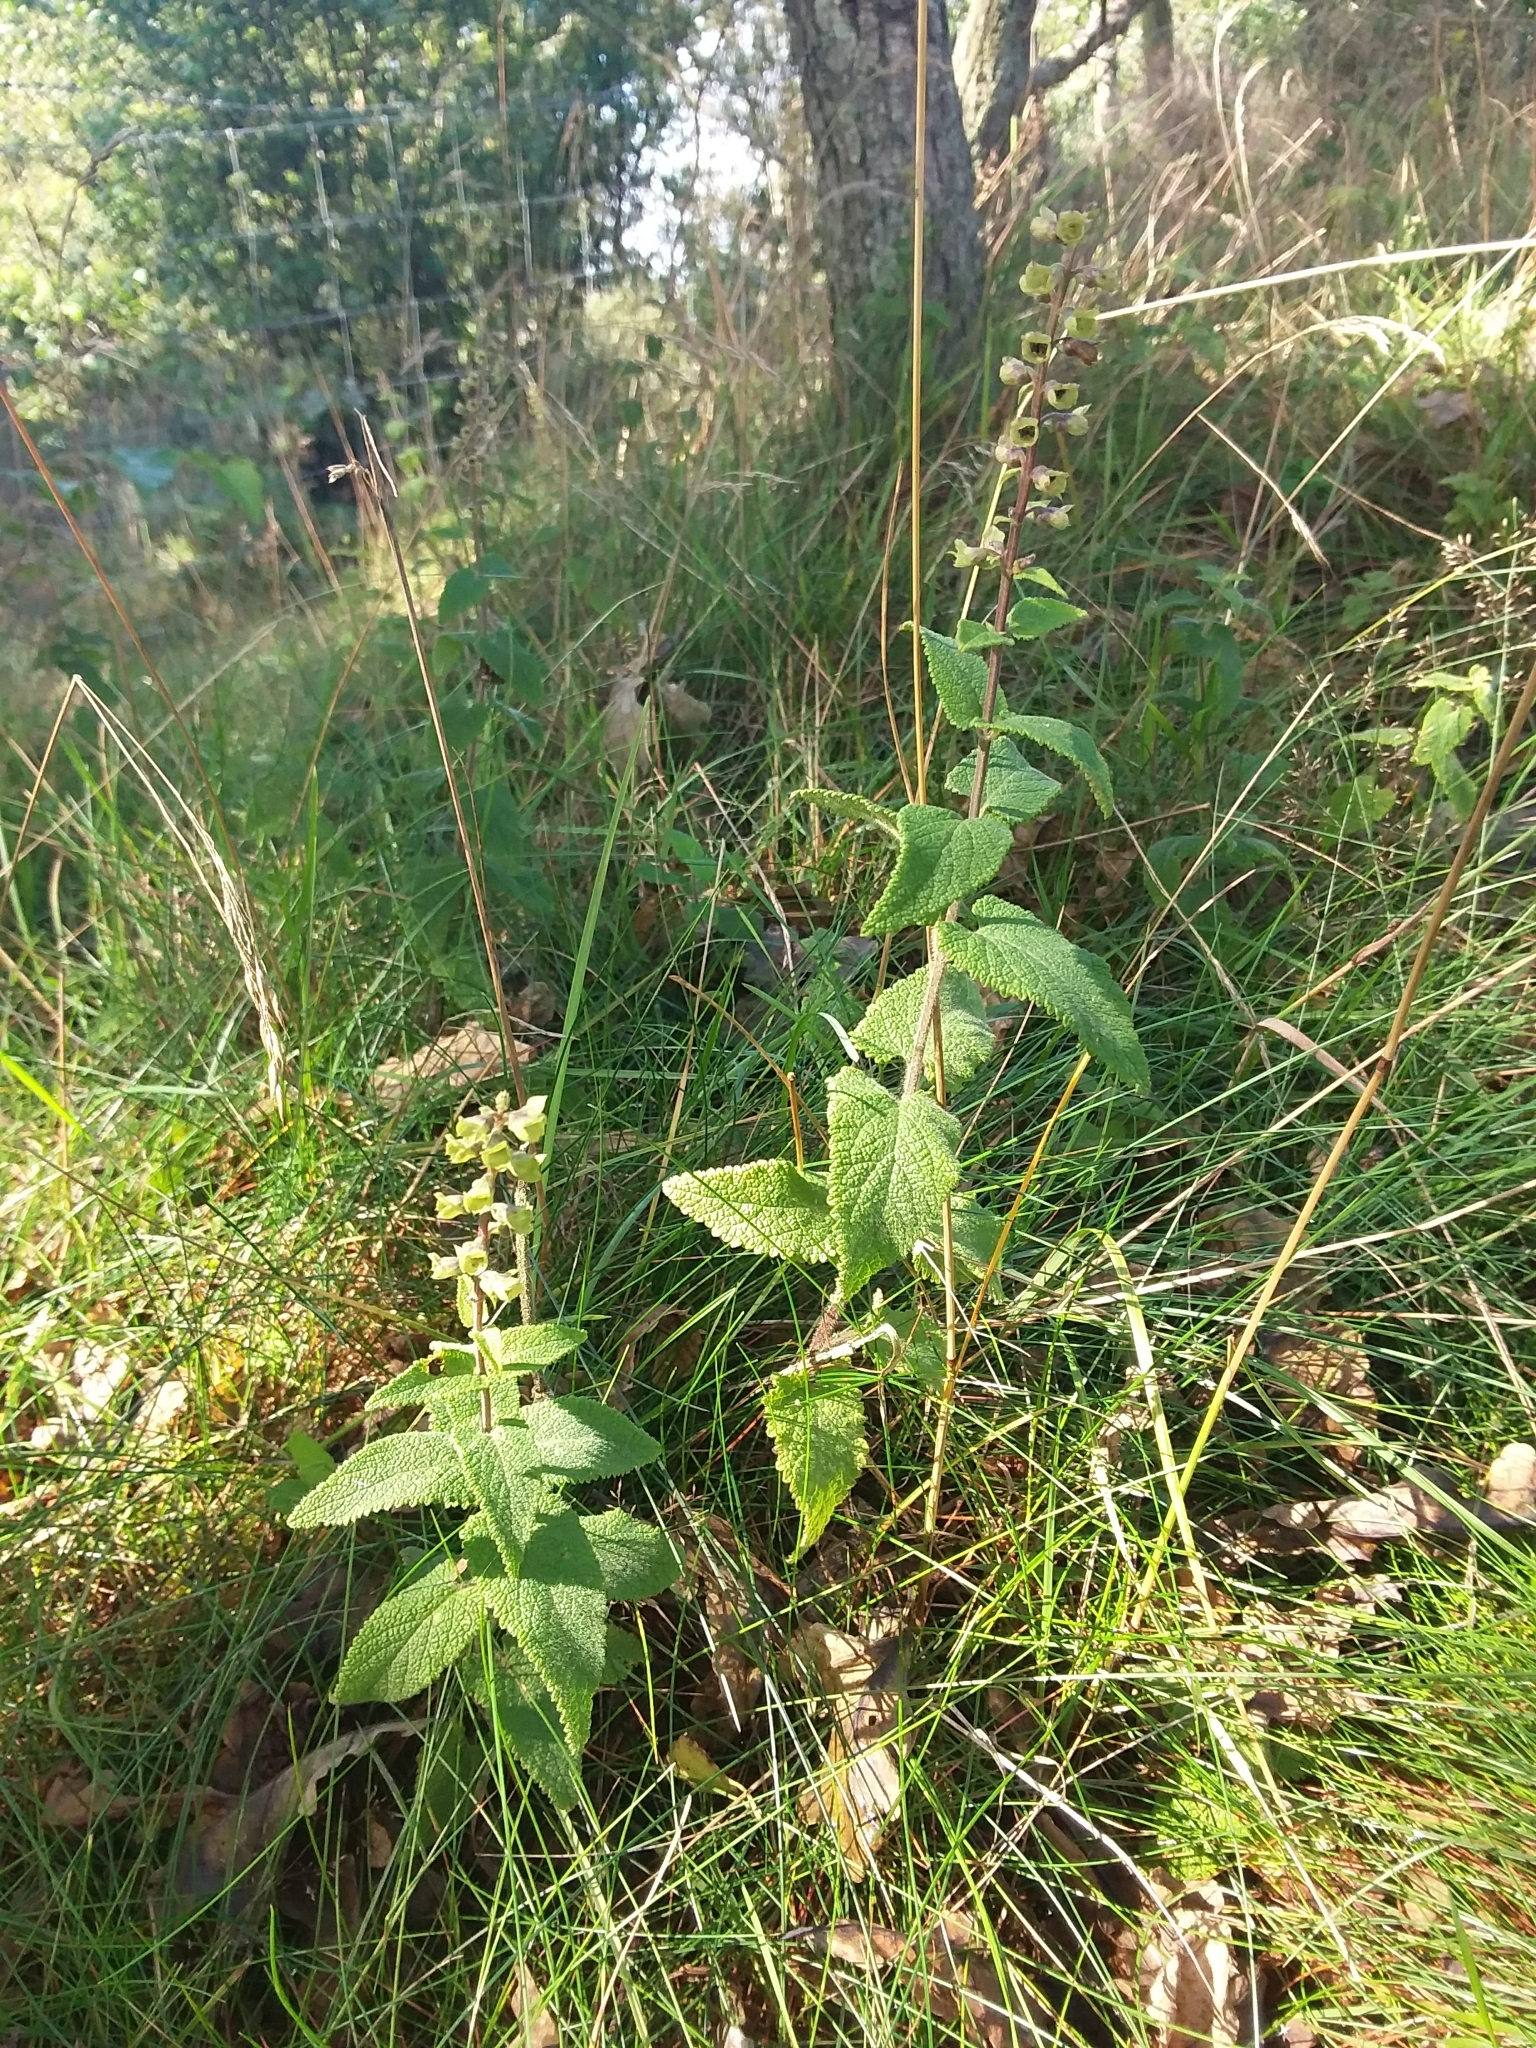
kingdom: Plantae
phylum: Tracheophyta
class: Magnoliopsida
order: Lamiales
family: Lamiaceae
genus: Teucrium
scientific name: Teucrium scorodonia
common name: Woodland germander
